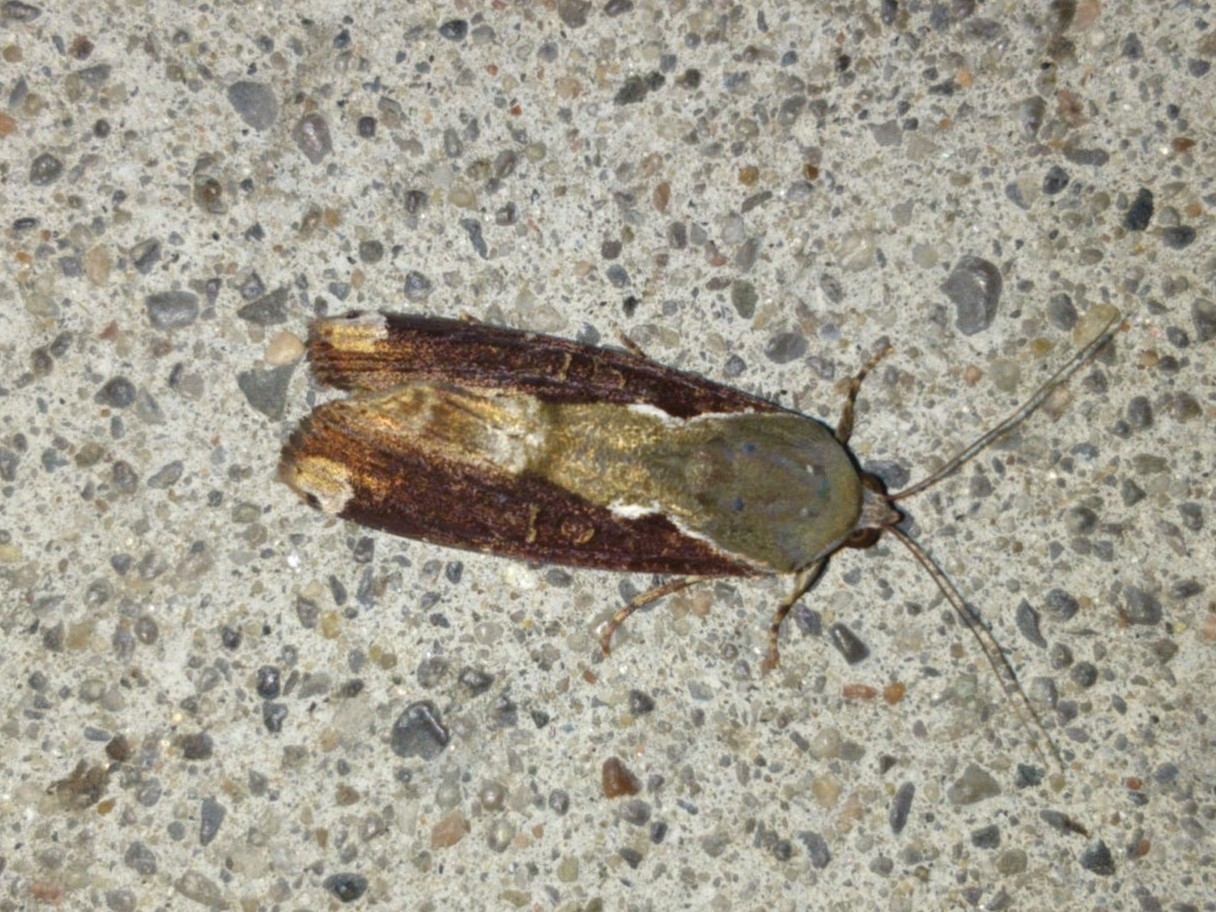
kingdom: Animalia
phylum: Arthropoda
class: Insecta
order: Lepidoptera
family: Noctuidae
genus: Magusa
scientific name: Magusa divaricata
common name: Orb narrow-winged moth
